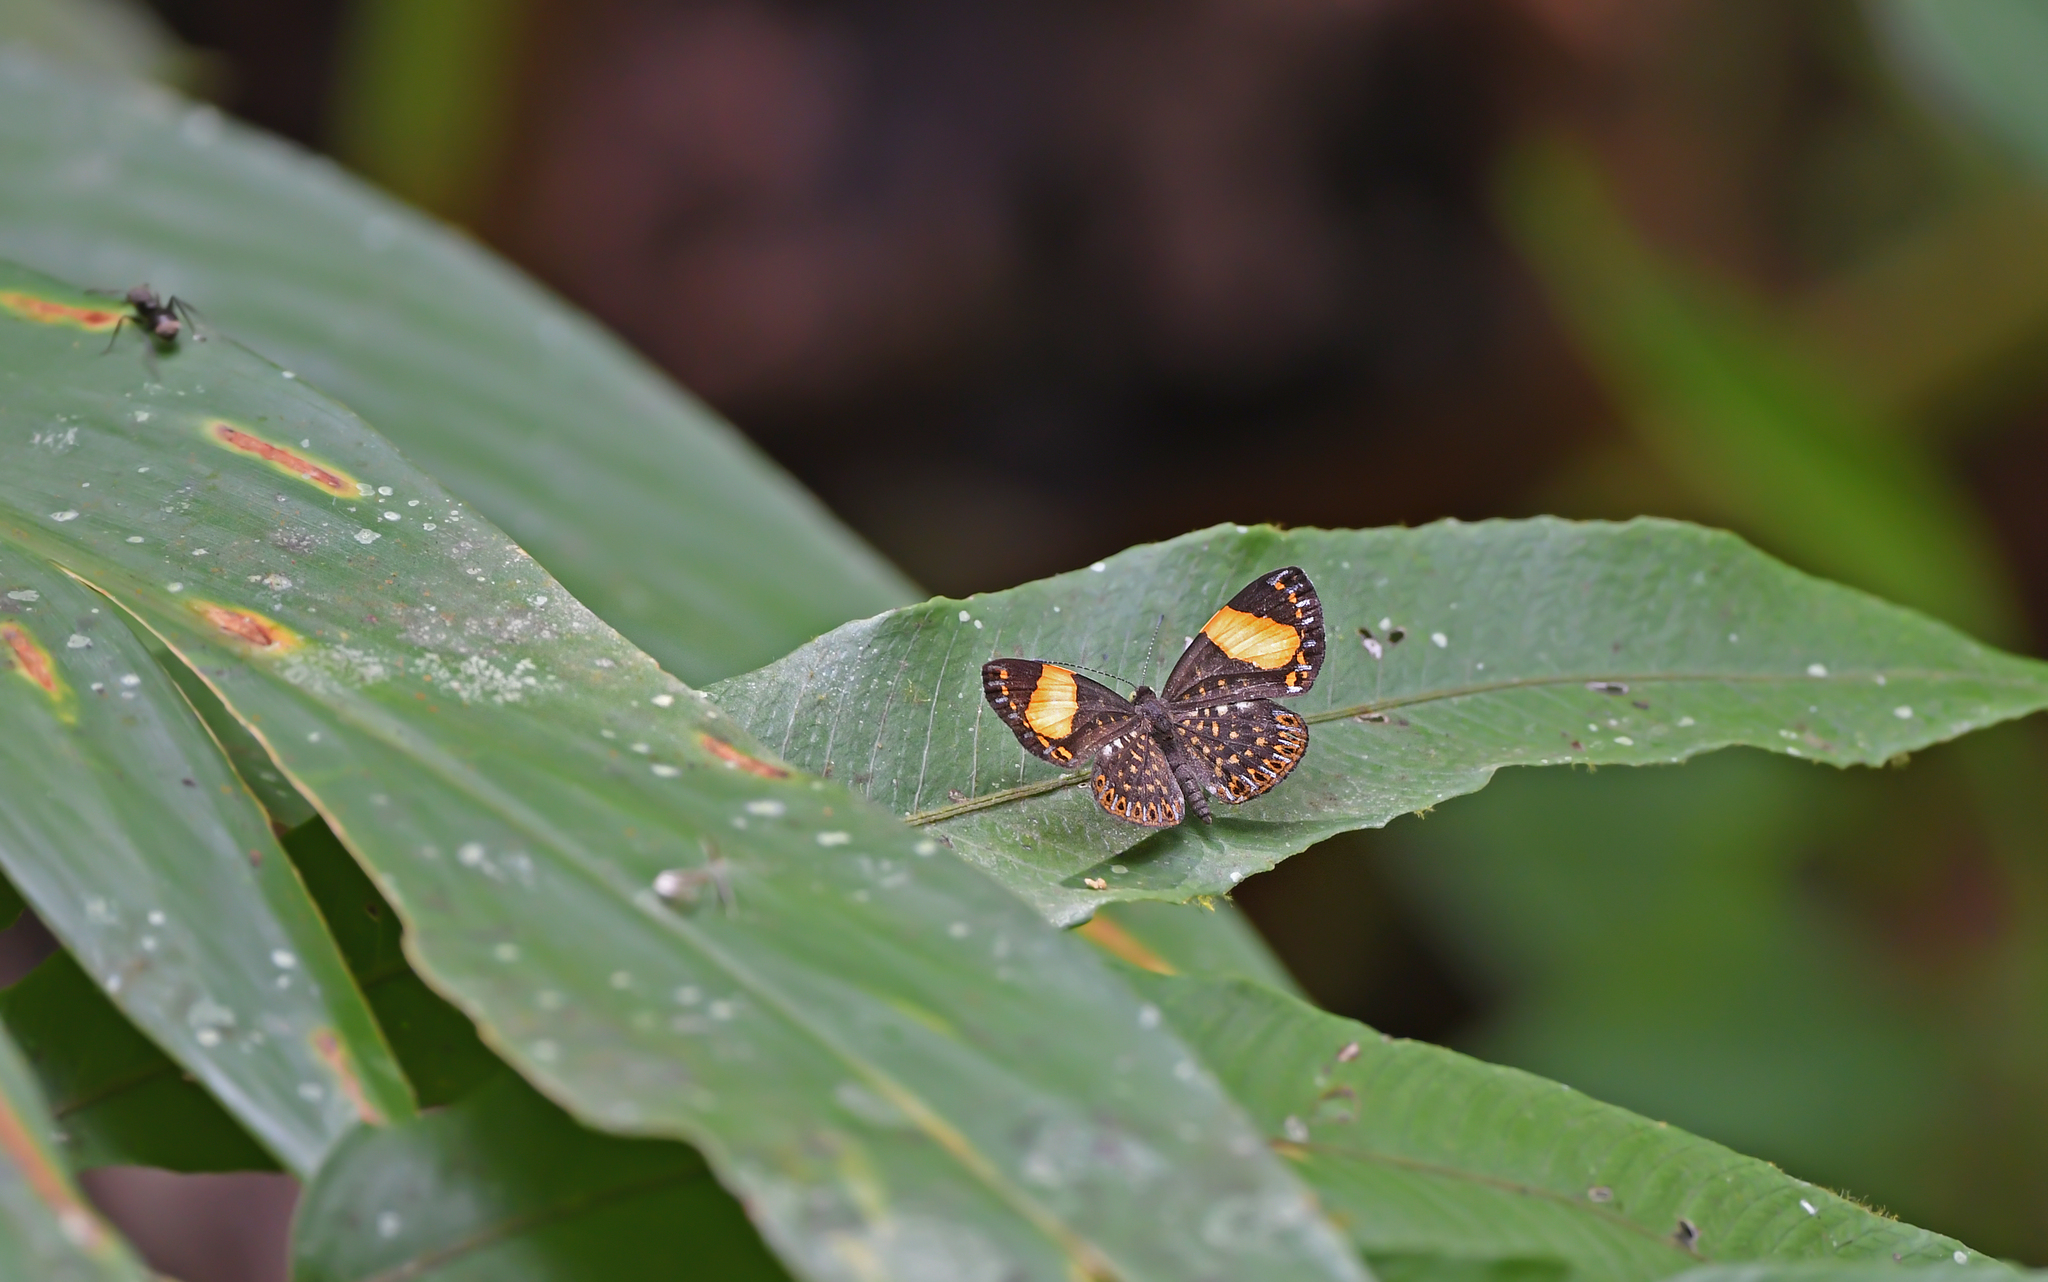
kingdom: Animalia
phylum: Arthropoda
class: Insecta
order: Lepidoptera
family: Riodinidae
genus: Cariomothis
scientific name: Cariomothis erotylus
